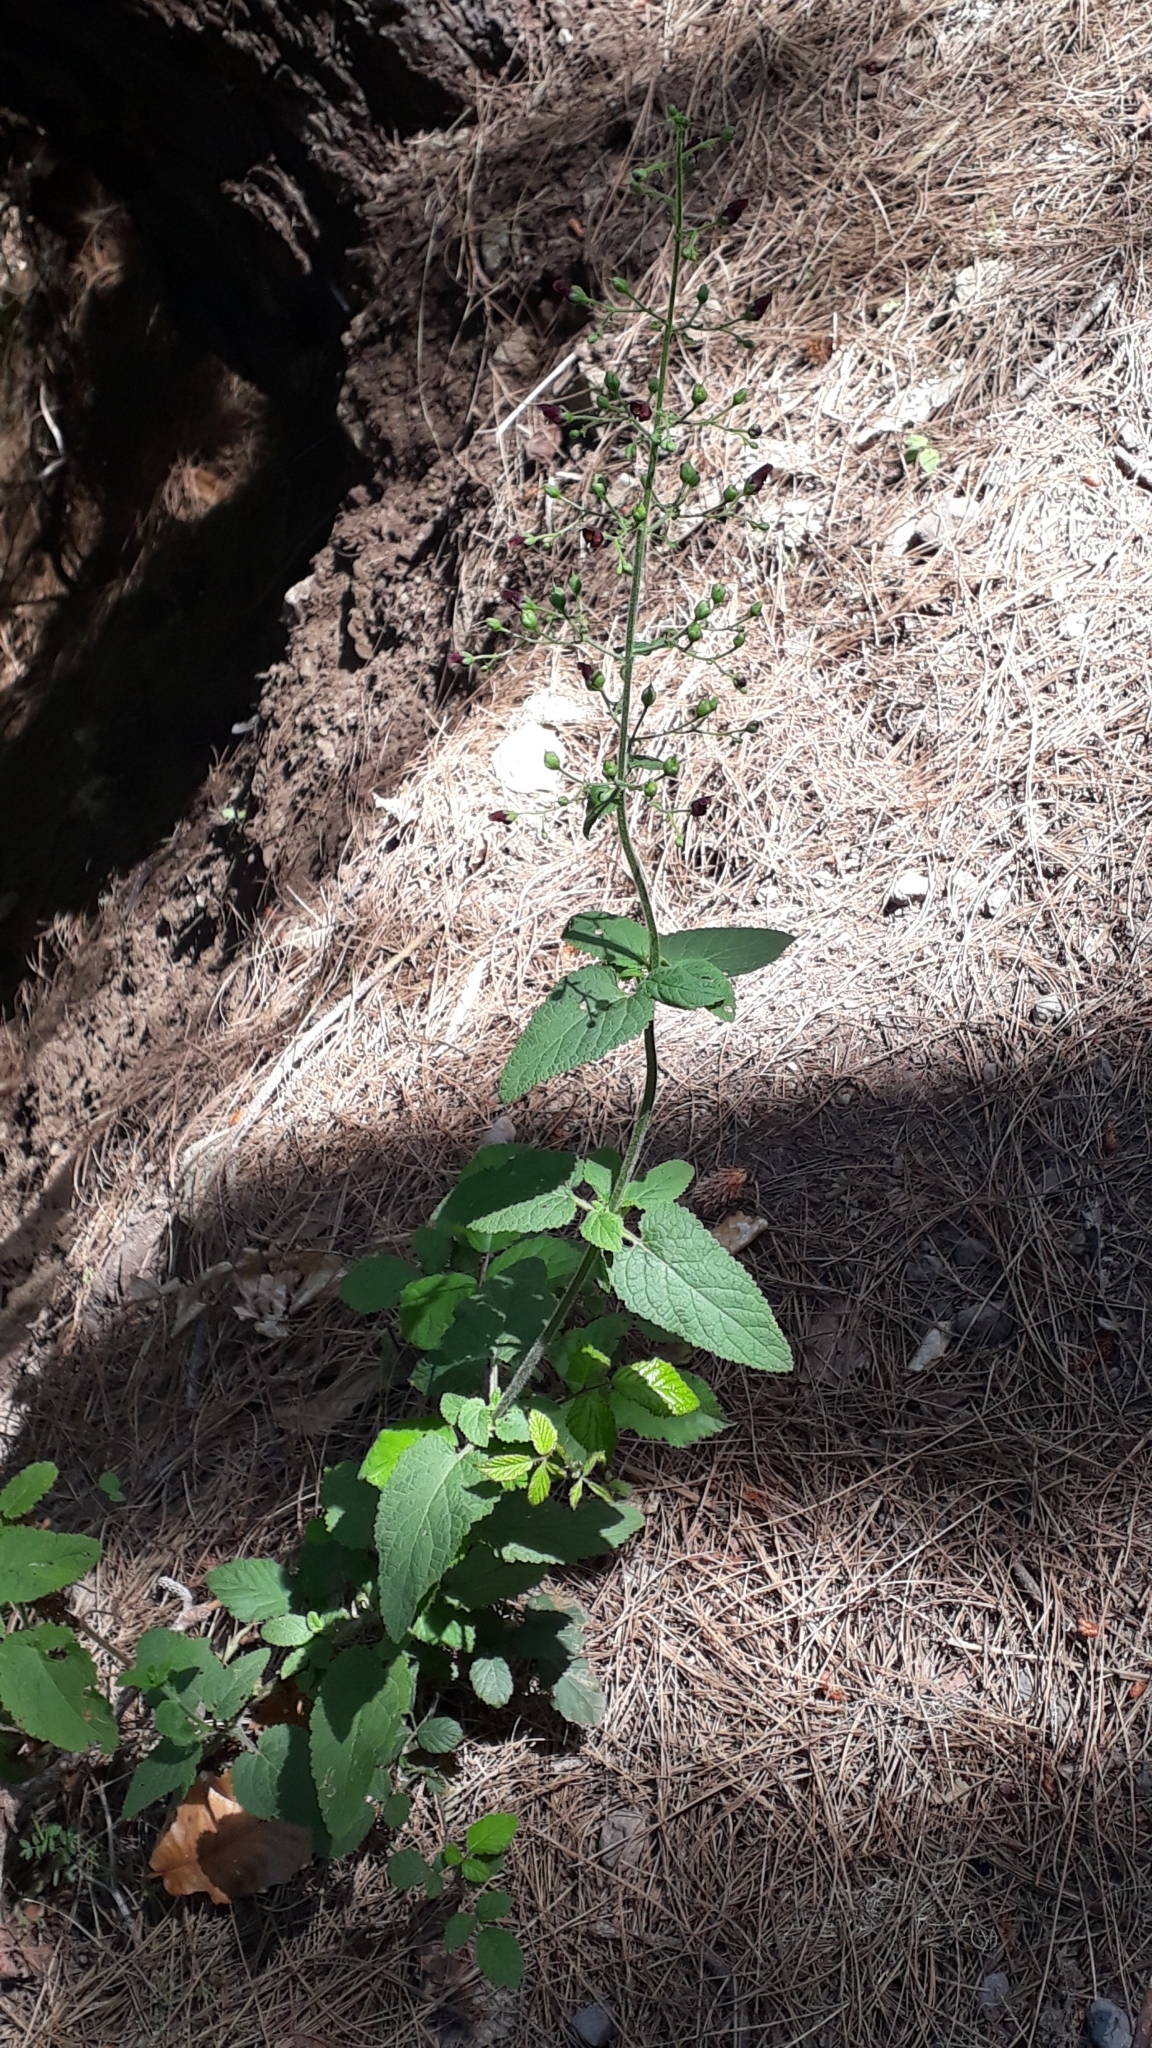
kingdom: Plantae
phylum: Tracheophyta
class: Magnoliopsida
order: Lamiales
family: Scrophulariaceae
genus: Scrophularia
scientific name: Scrophularia smithii
